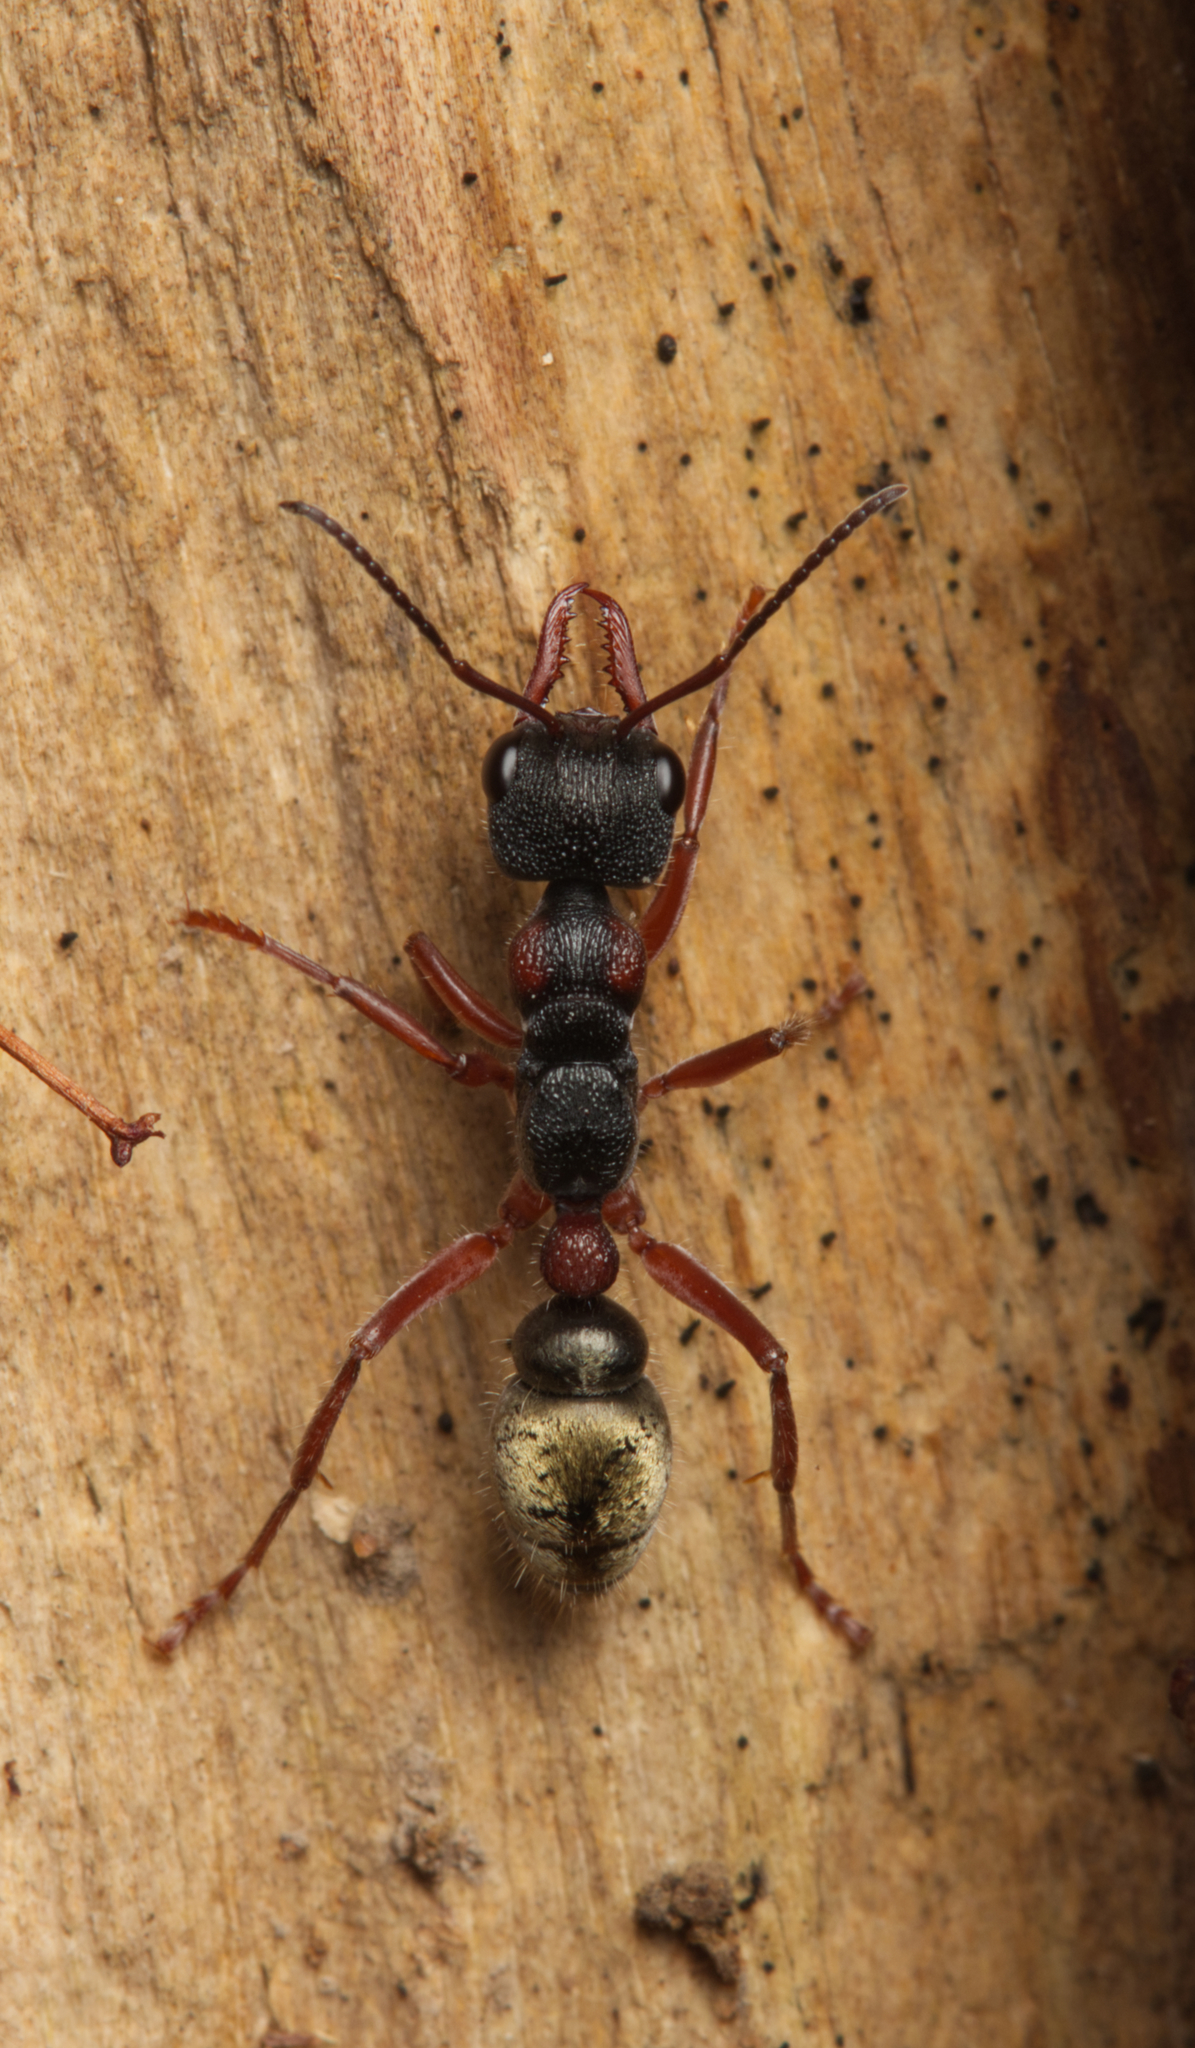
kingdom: Animalia
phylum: Arthropoda
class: Insecta
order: Hymenoptera
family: Formicidae
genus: Myrmecia
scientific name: Myrmecia chrysogaster
